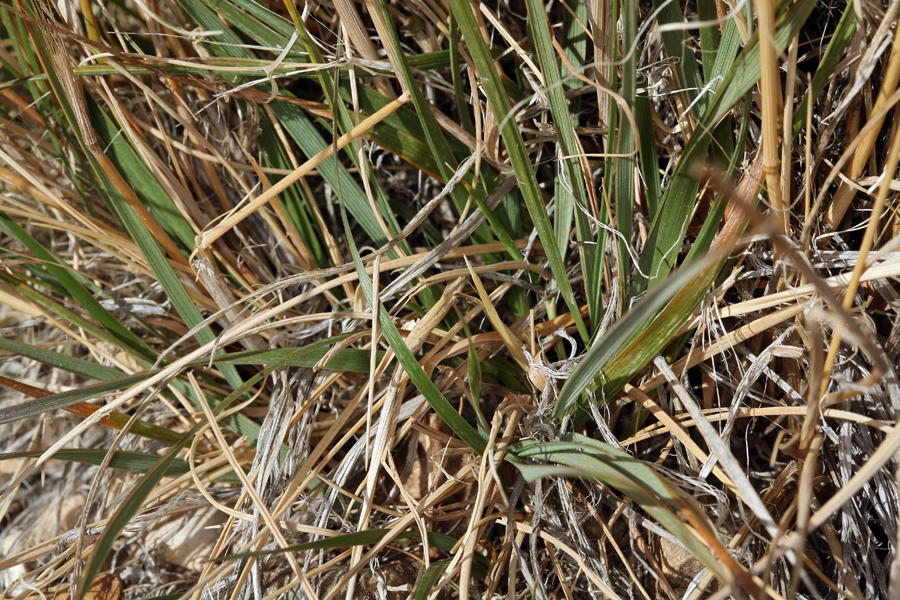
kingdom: Plantae
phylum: Tracheophyta
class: Liliopsida
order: Poales
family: Poaceae
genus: Calamagrostis
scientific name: Calamagrostis purpurascens
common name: Purple reedgrass
